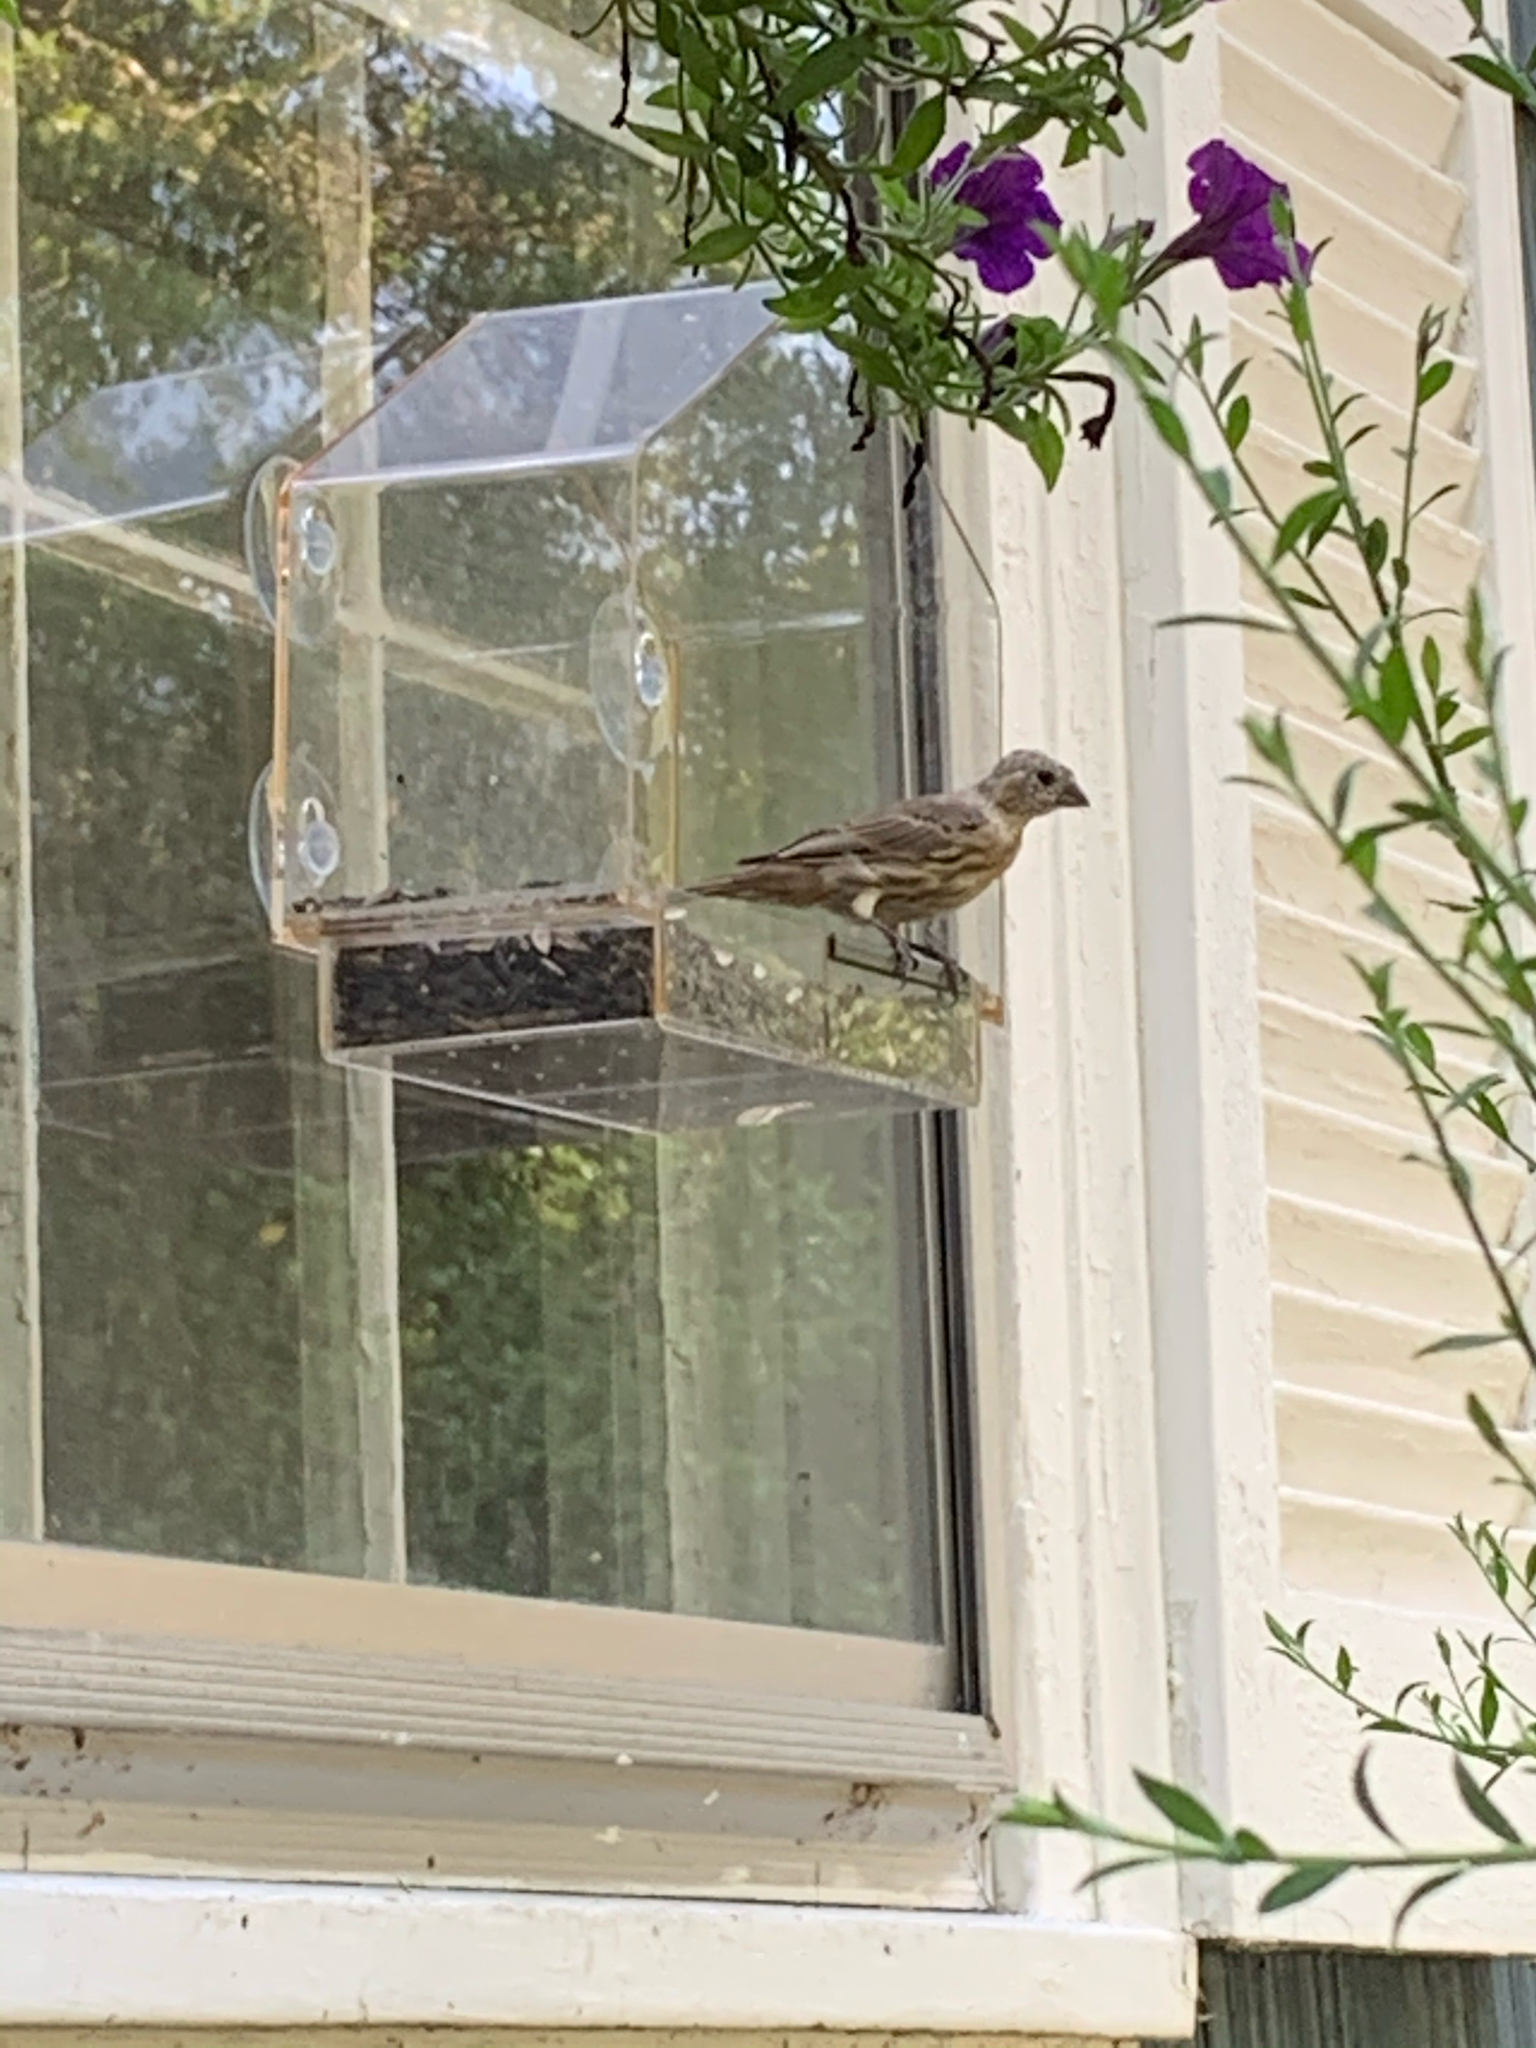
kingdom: Animalia
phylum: Chordata
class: Aves
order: Passeriformes
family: Fringillidae
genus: Haemorhous
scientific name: Haemorhous mexicanus
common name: House finch
